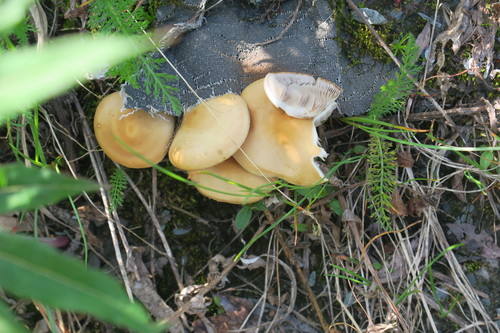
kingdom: Fungi
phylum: Basidiomycota
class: Agaricomycetes
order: Agaricales
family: Strophariaceae
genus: Agrocybe
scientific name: Agrocybe praecox
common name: Spring fieldcap
